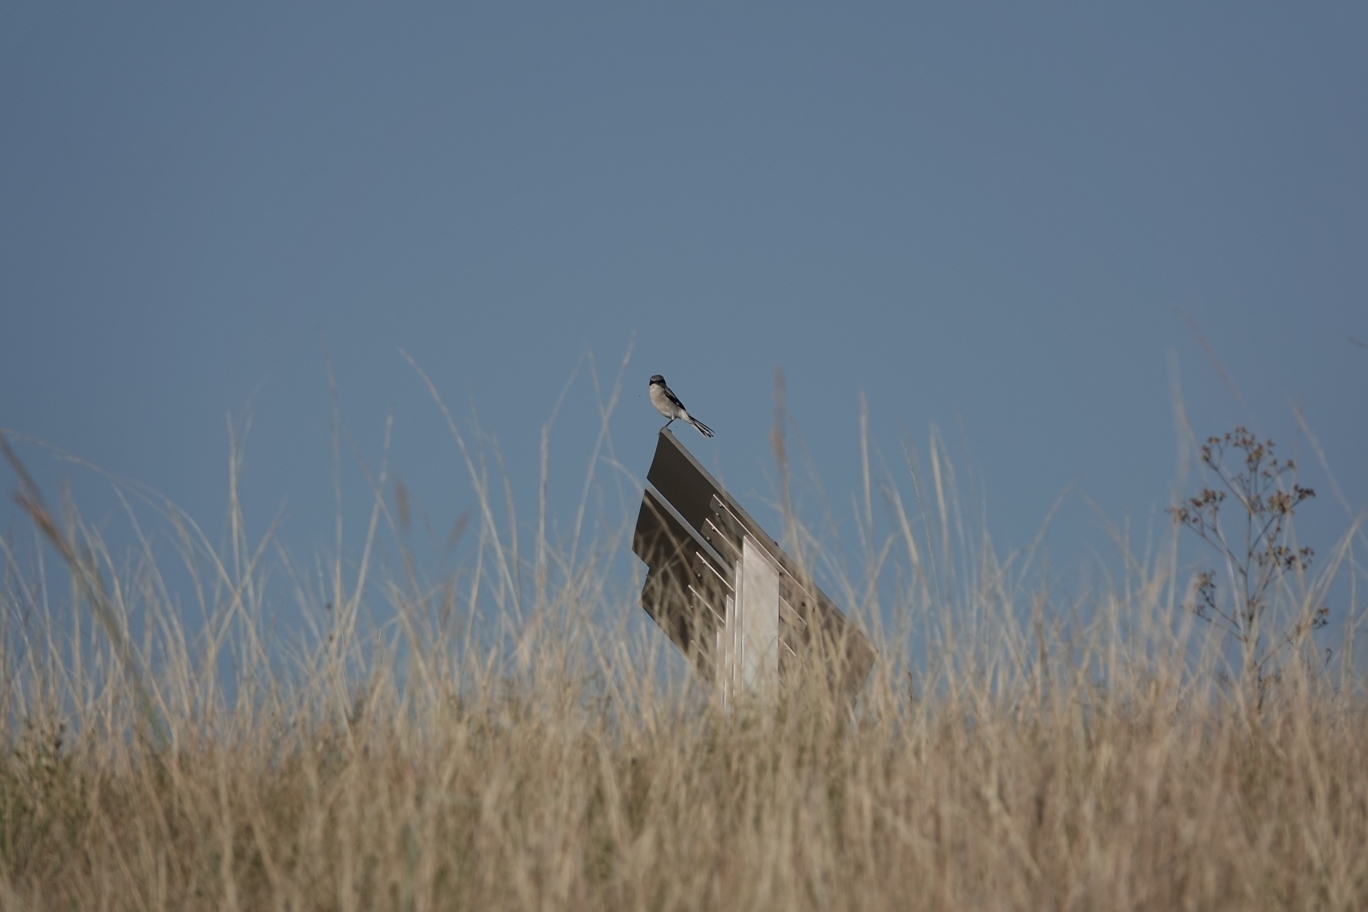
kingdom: Animalia
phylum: Chordata
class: Aves
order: Passeriformes
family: Laniidae
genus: Lanius
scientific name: Lanius ludovicianus
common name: Loggerhead shrike
